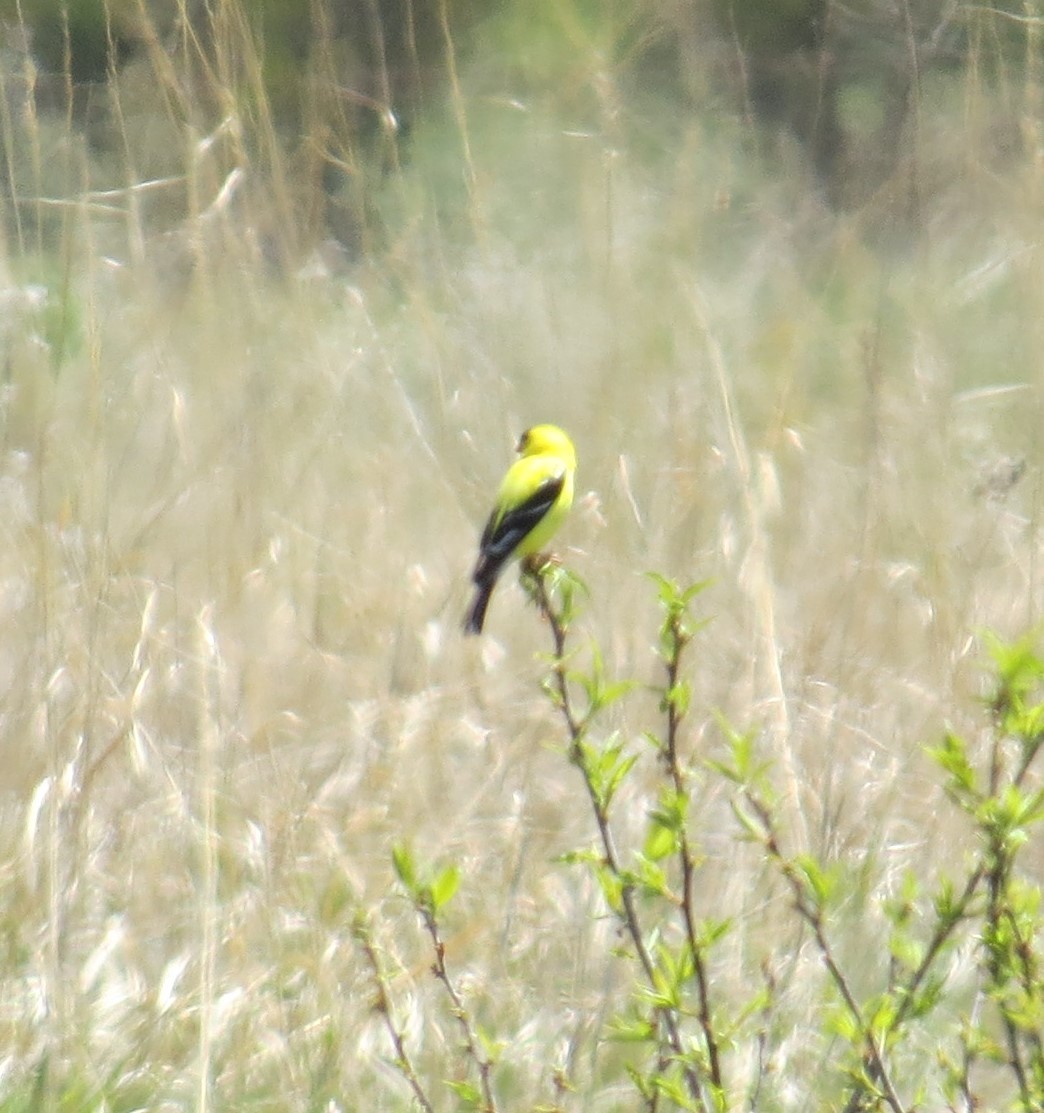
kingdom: Animalia
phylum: Chordata
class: Aves
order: Passeriformes
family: Fringillidae
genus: Spinus
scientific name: Spinus tristis
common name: American goldfinch
